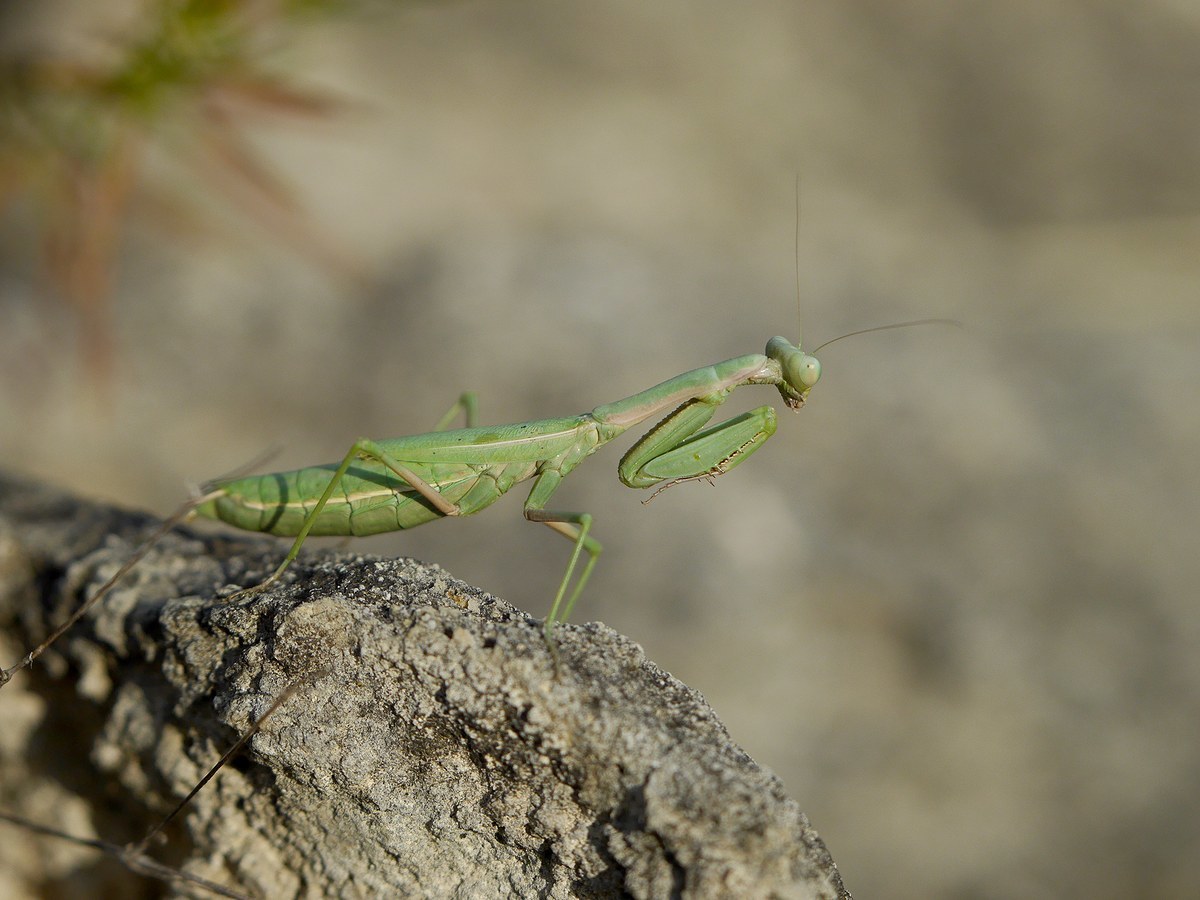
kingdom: Animalia
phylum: Arthropoda
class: Insecta
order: Mantodea
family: Eremiaphilidae
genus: Iris
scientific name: Iris polystictica
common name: Dot-winged mantis
